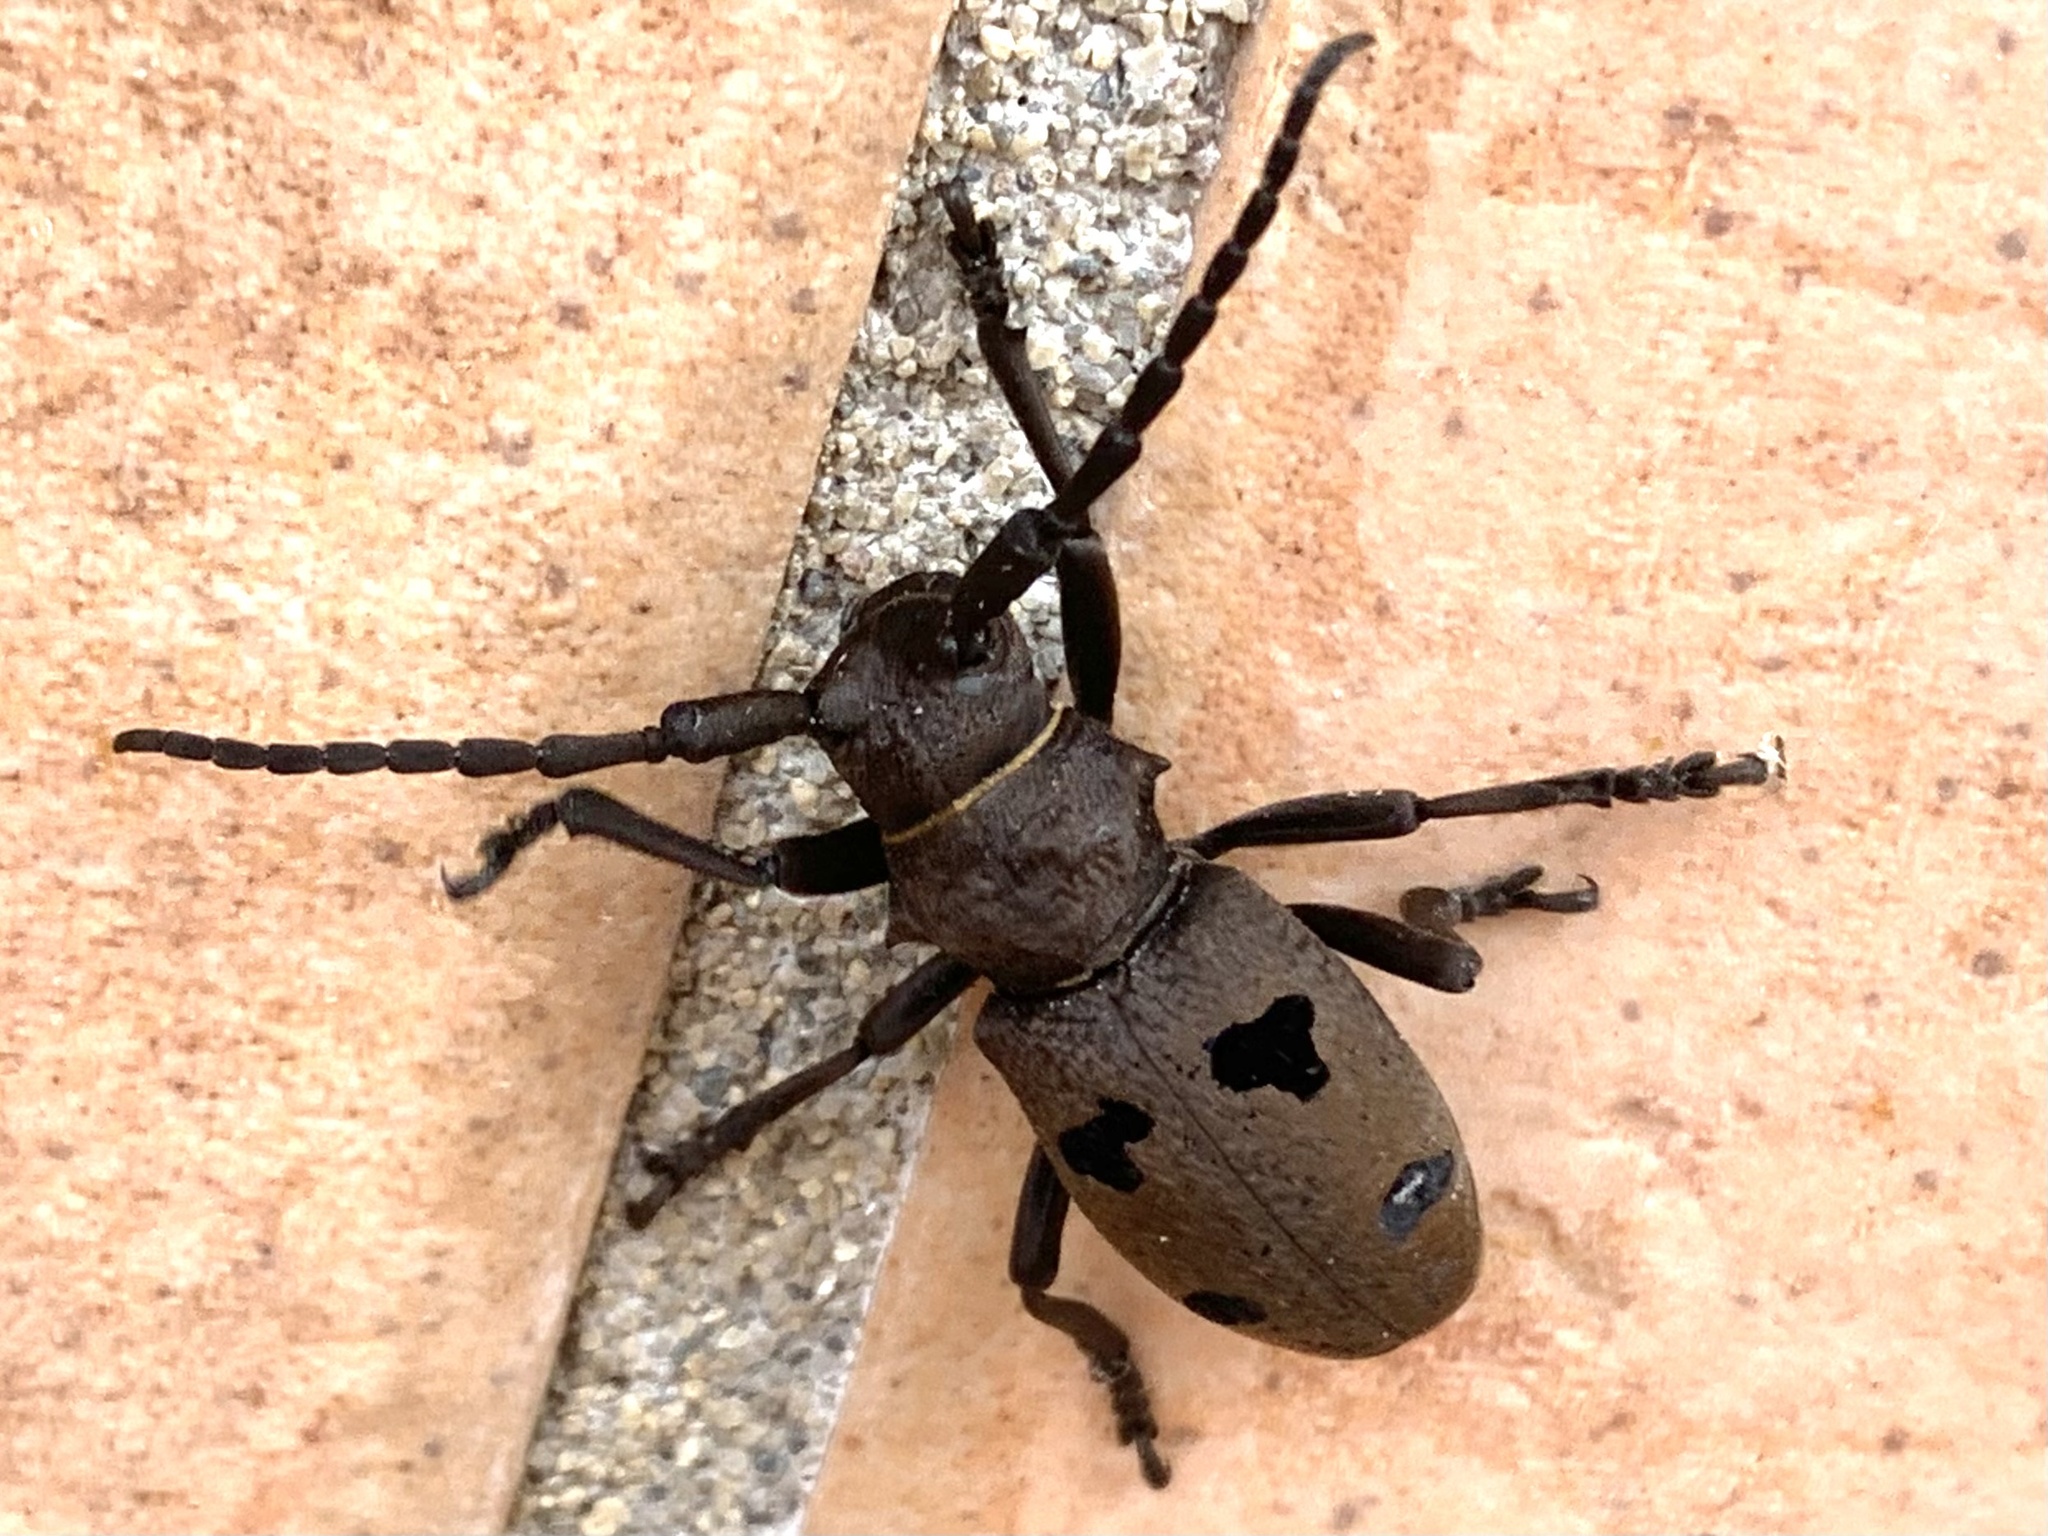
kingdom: Animalia
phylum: Arthropoda
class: Insecta
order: Coleoptera
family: Cerambycidae
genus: Herophila
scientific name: Herophila tristis
